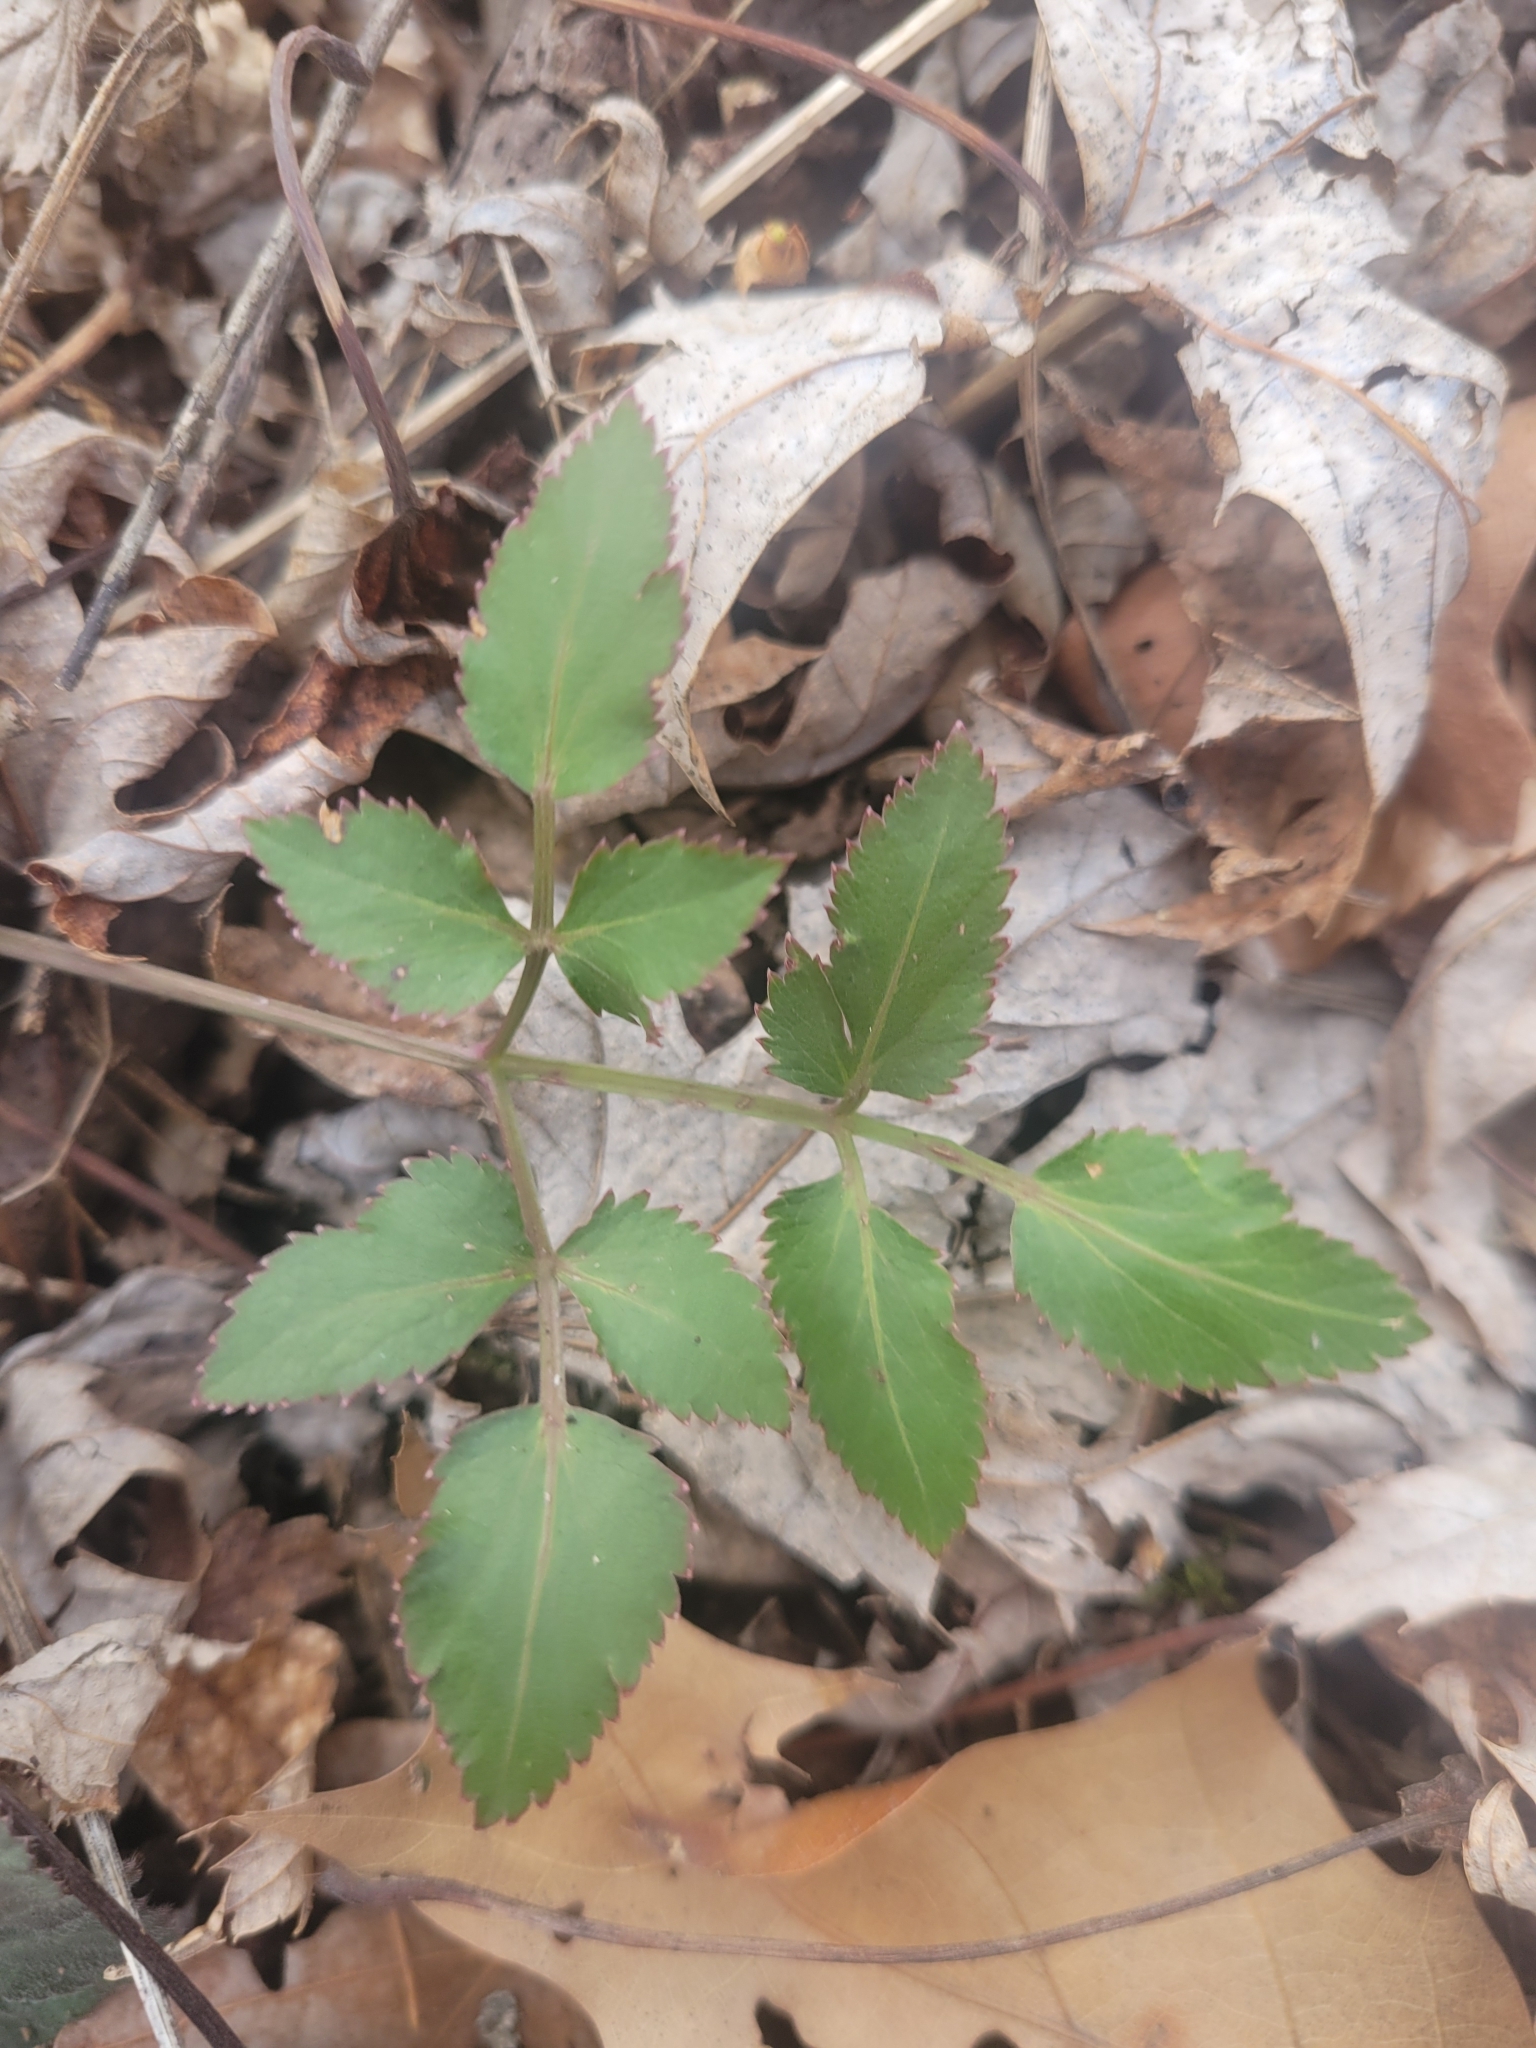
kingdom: Plantae
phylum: Tracheophyta
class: Magnoliopsida
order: Apiales
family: Apiaceae
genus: Zizia
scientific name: Zizia aurea
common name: Golden alexanders
